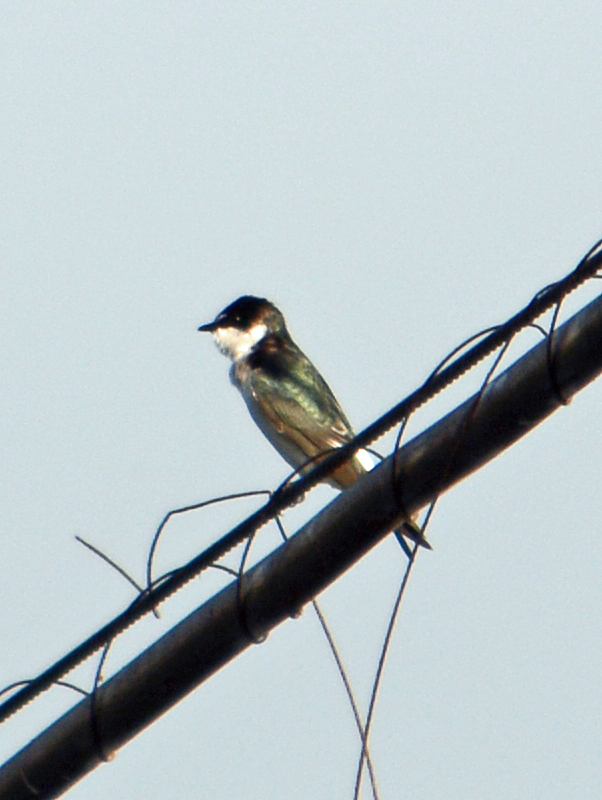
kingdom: Animalia
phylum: Chordata
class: Aves
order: Passeriformes
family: Hirundinidae
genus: Tachycineta
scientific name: Tachycineta albilinea
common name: Mangrove swallow
